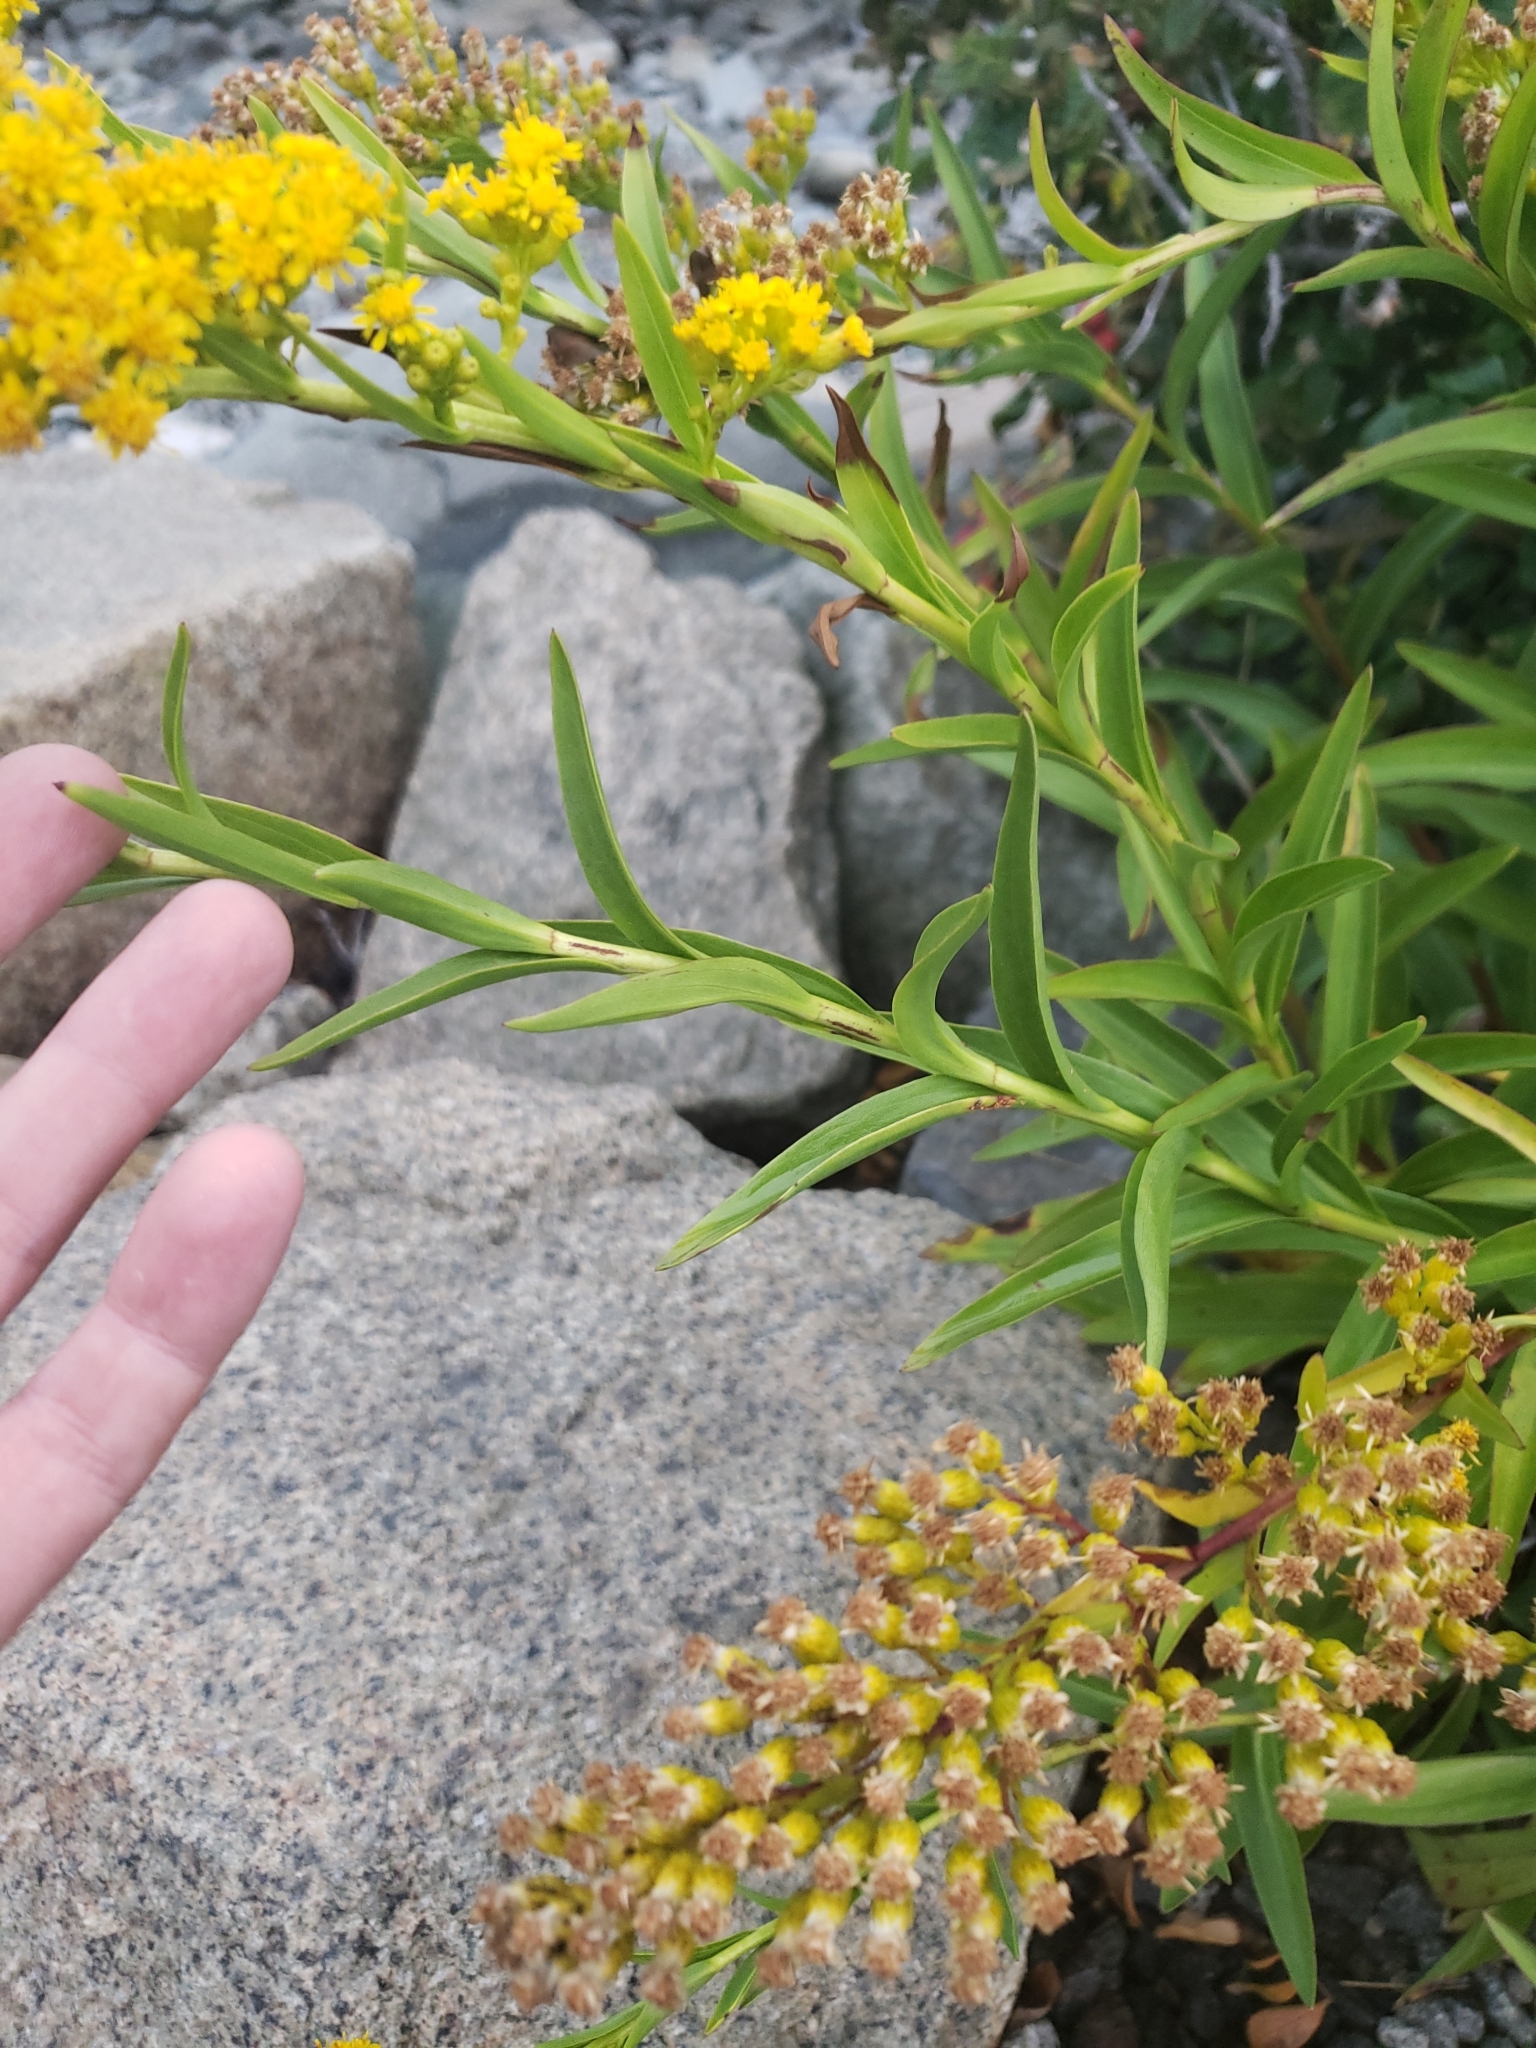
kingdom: Plantae
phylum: Tracheophyta
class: Magnoliopsida
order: Asterales
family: Asteraceae
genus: Solidago
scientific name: Solidago sempervirens
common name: Salt-marsh goldenrod
